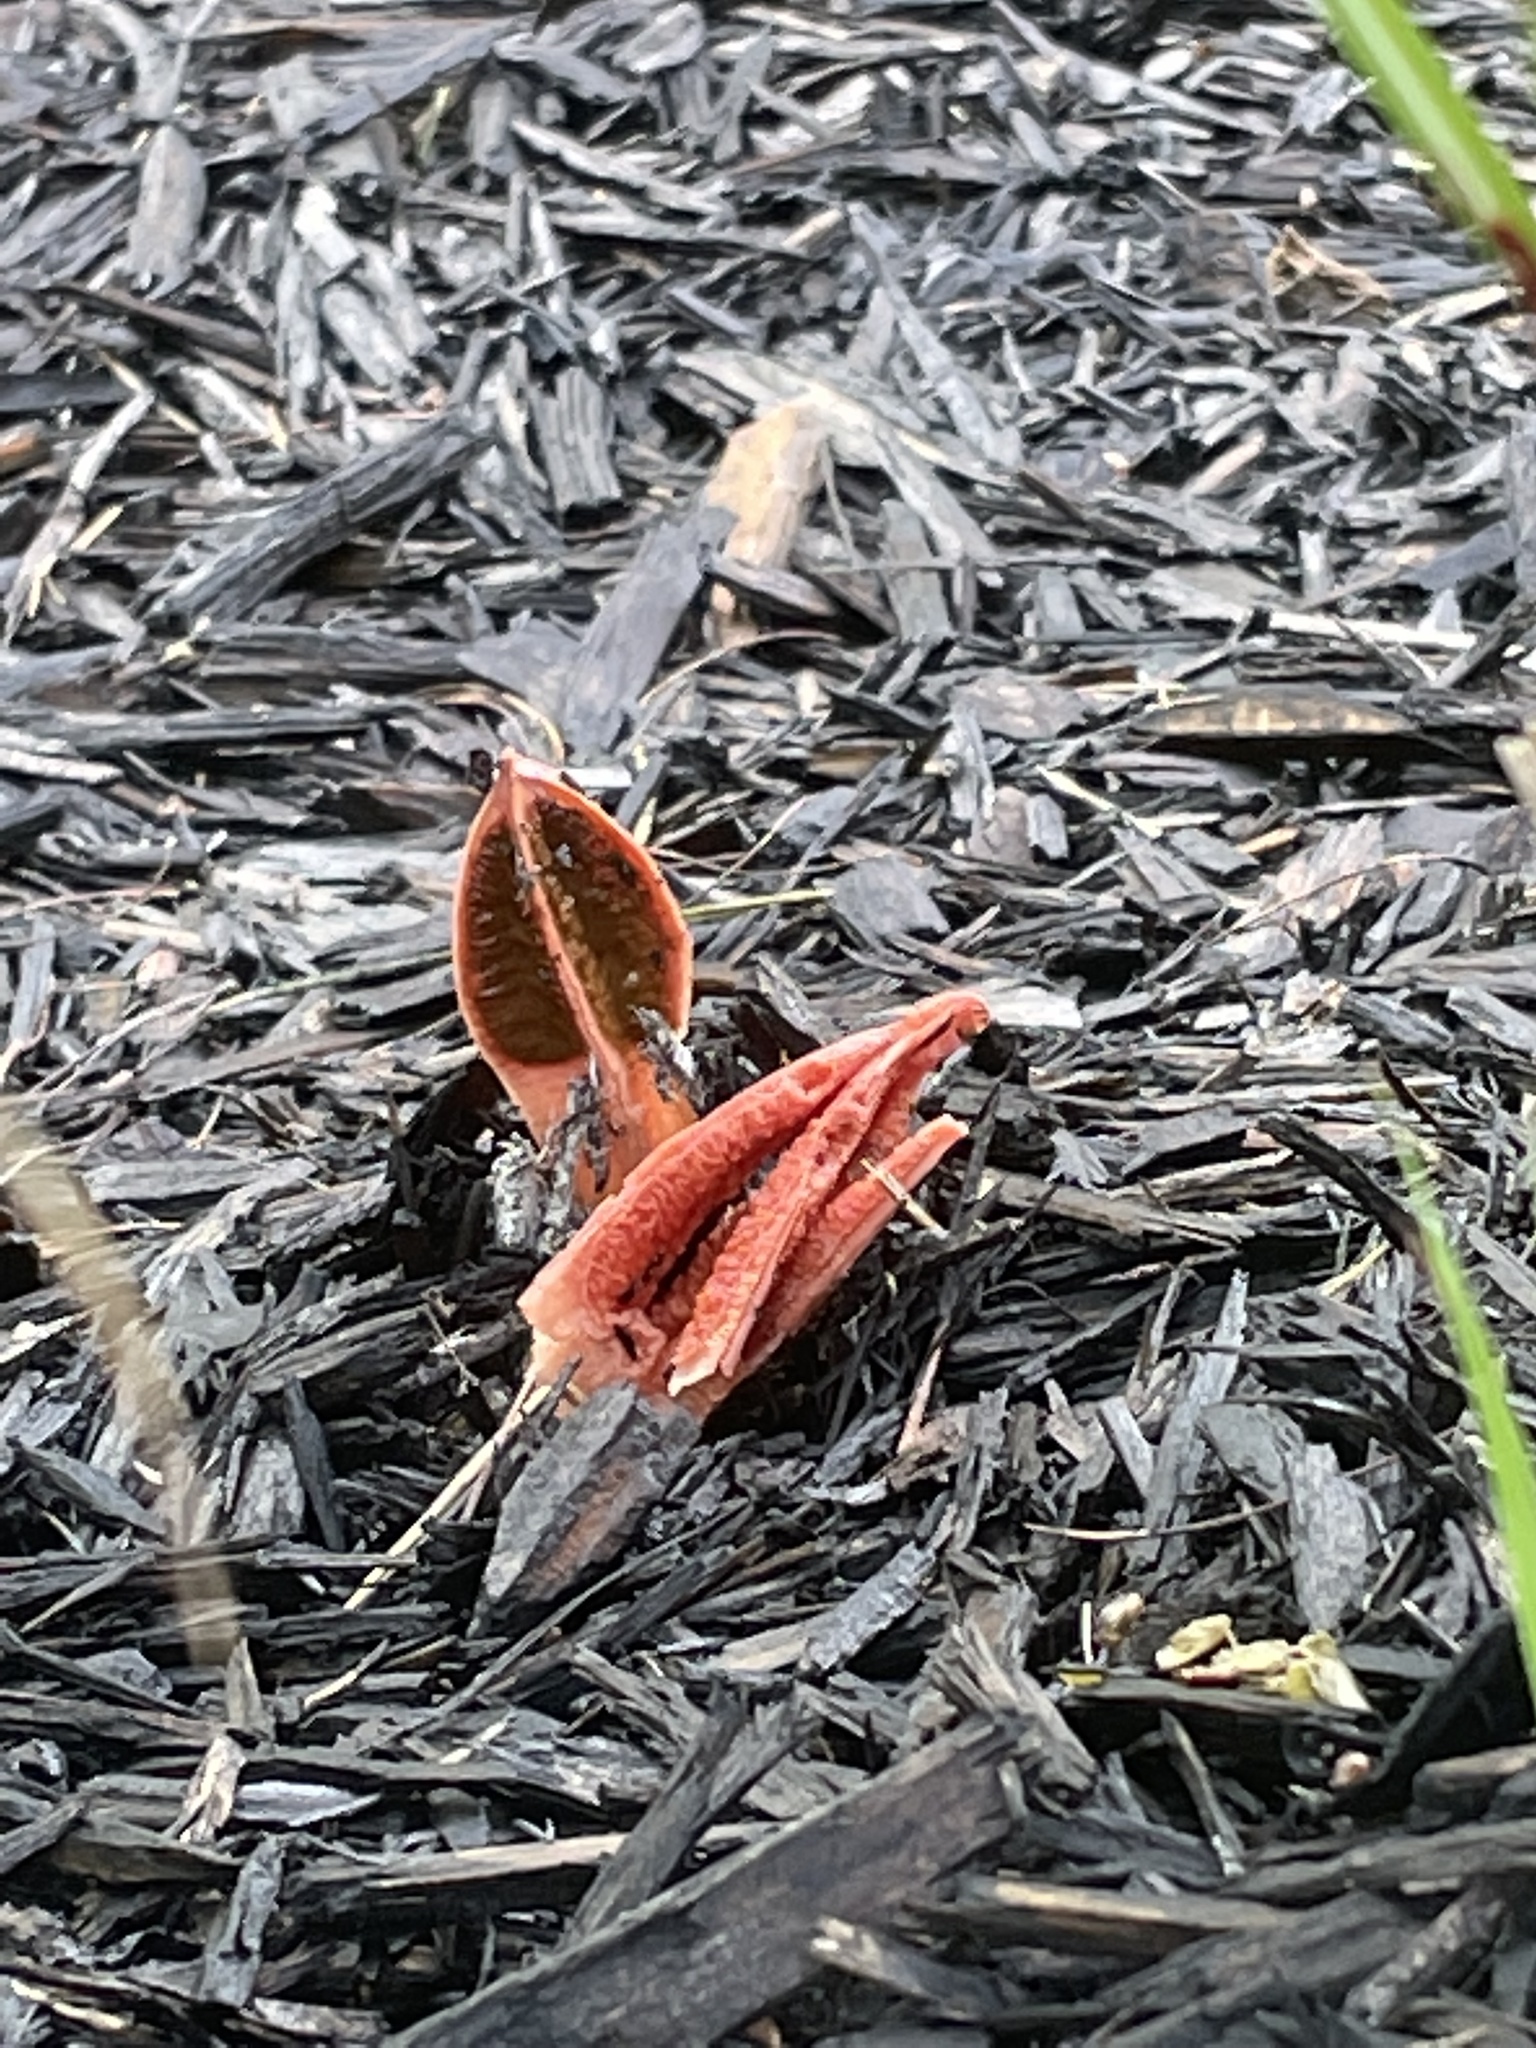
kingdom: Fungi
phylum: Basidiomycota
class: Agaricomycetes
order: Phallales
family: Phallaceae
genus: Lysurus
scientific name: Lysurus mokusin
